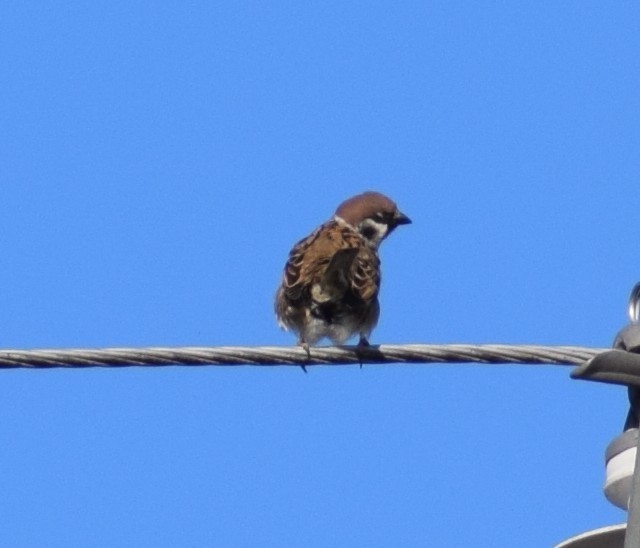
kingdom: Animalia
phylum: Chordata
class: Aves
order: Passeriformes
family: Passeridae
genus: Passer
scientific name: Passer montanus
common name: Eurasian tree sparrow
